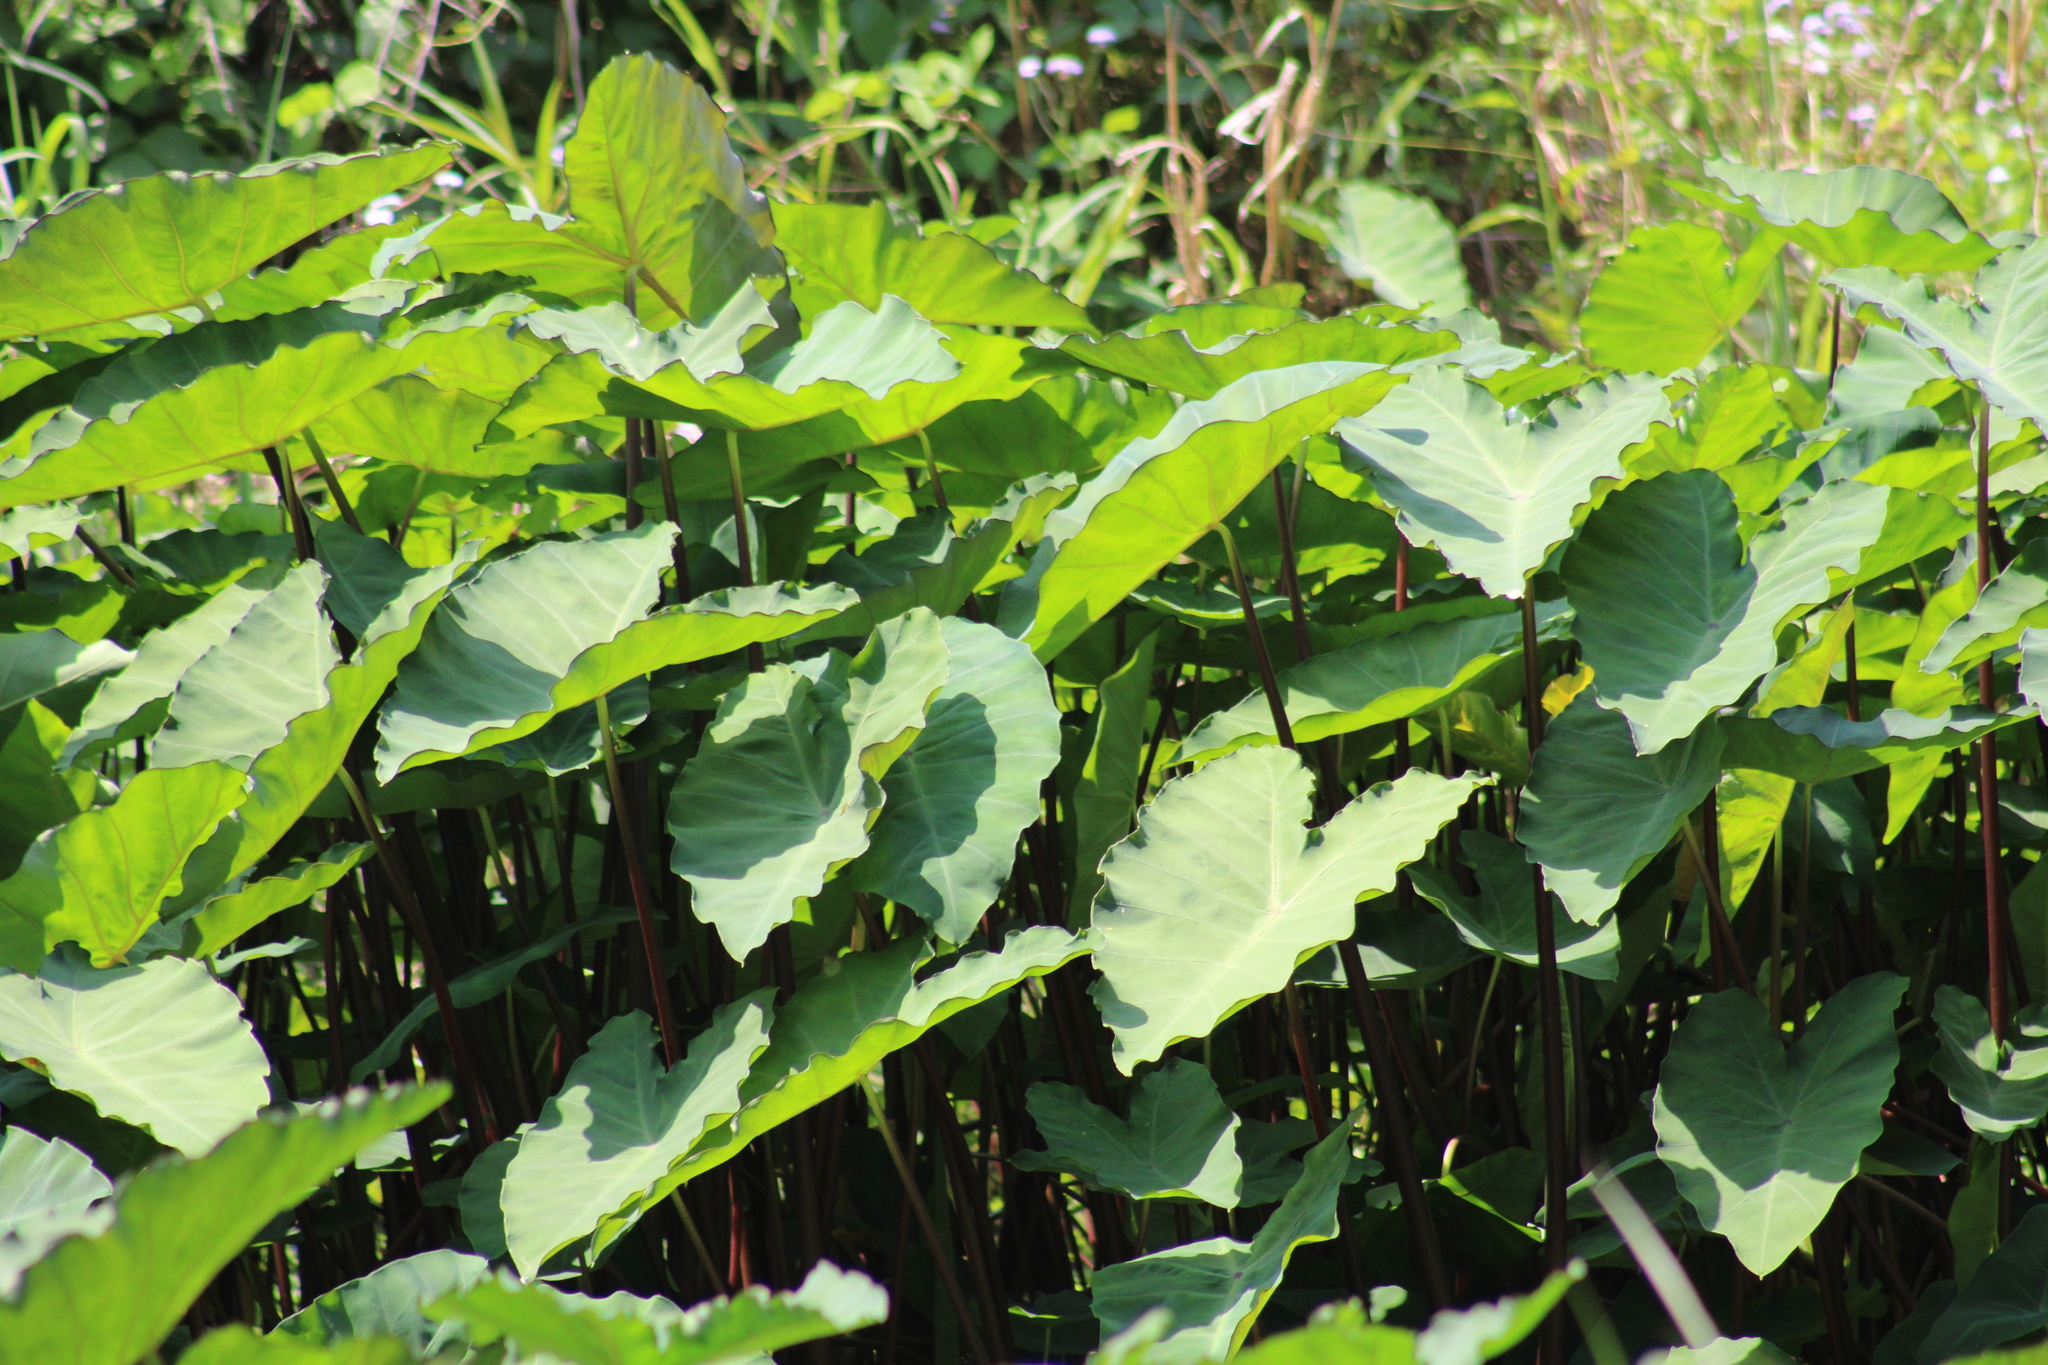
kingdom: Plantae
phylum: Tracheophyta
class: Liliopsida
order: Alismatales
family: Araceae
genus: Colocasia
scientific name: Colocasia esculenta
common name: Taro
